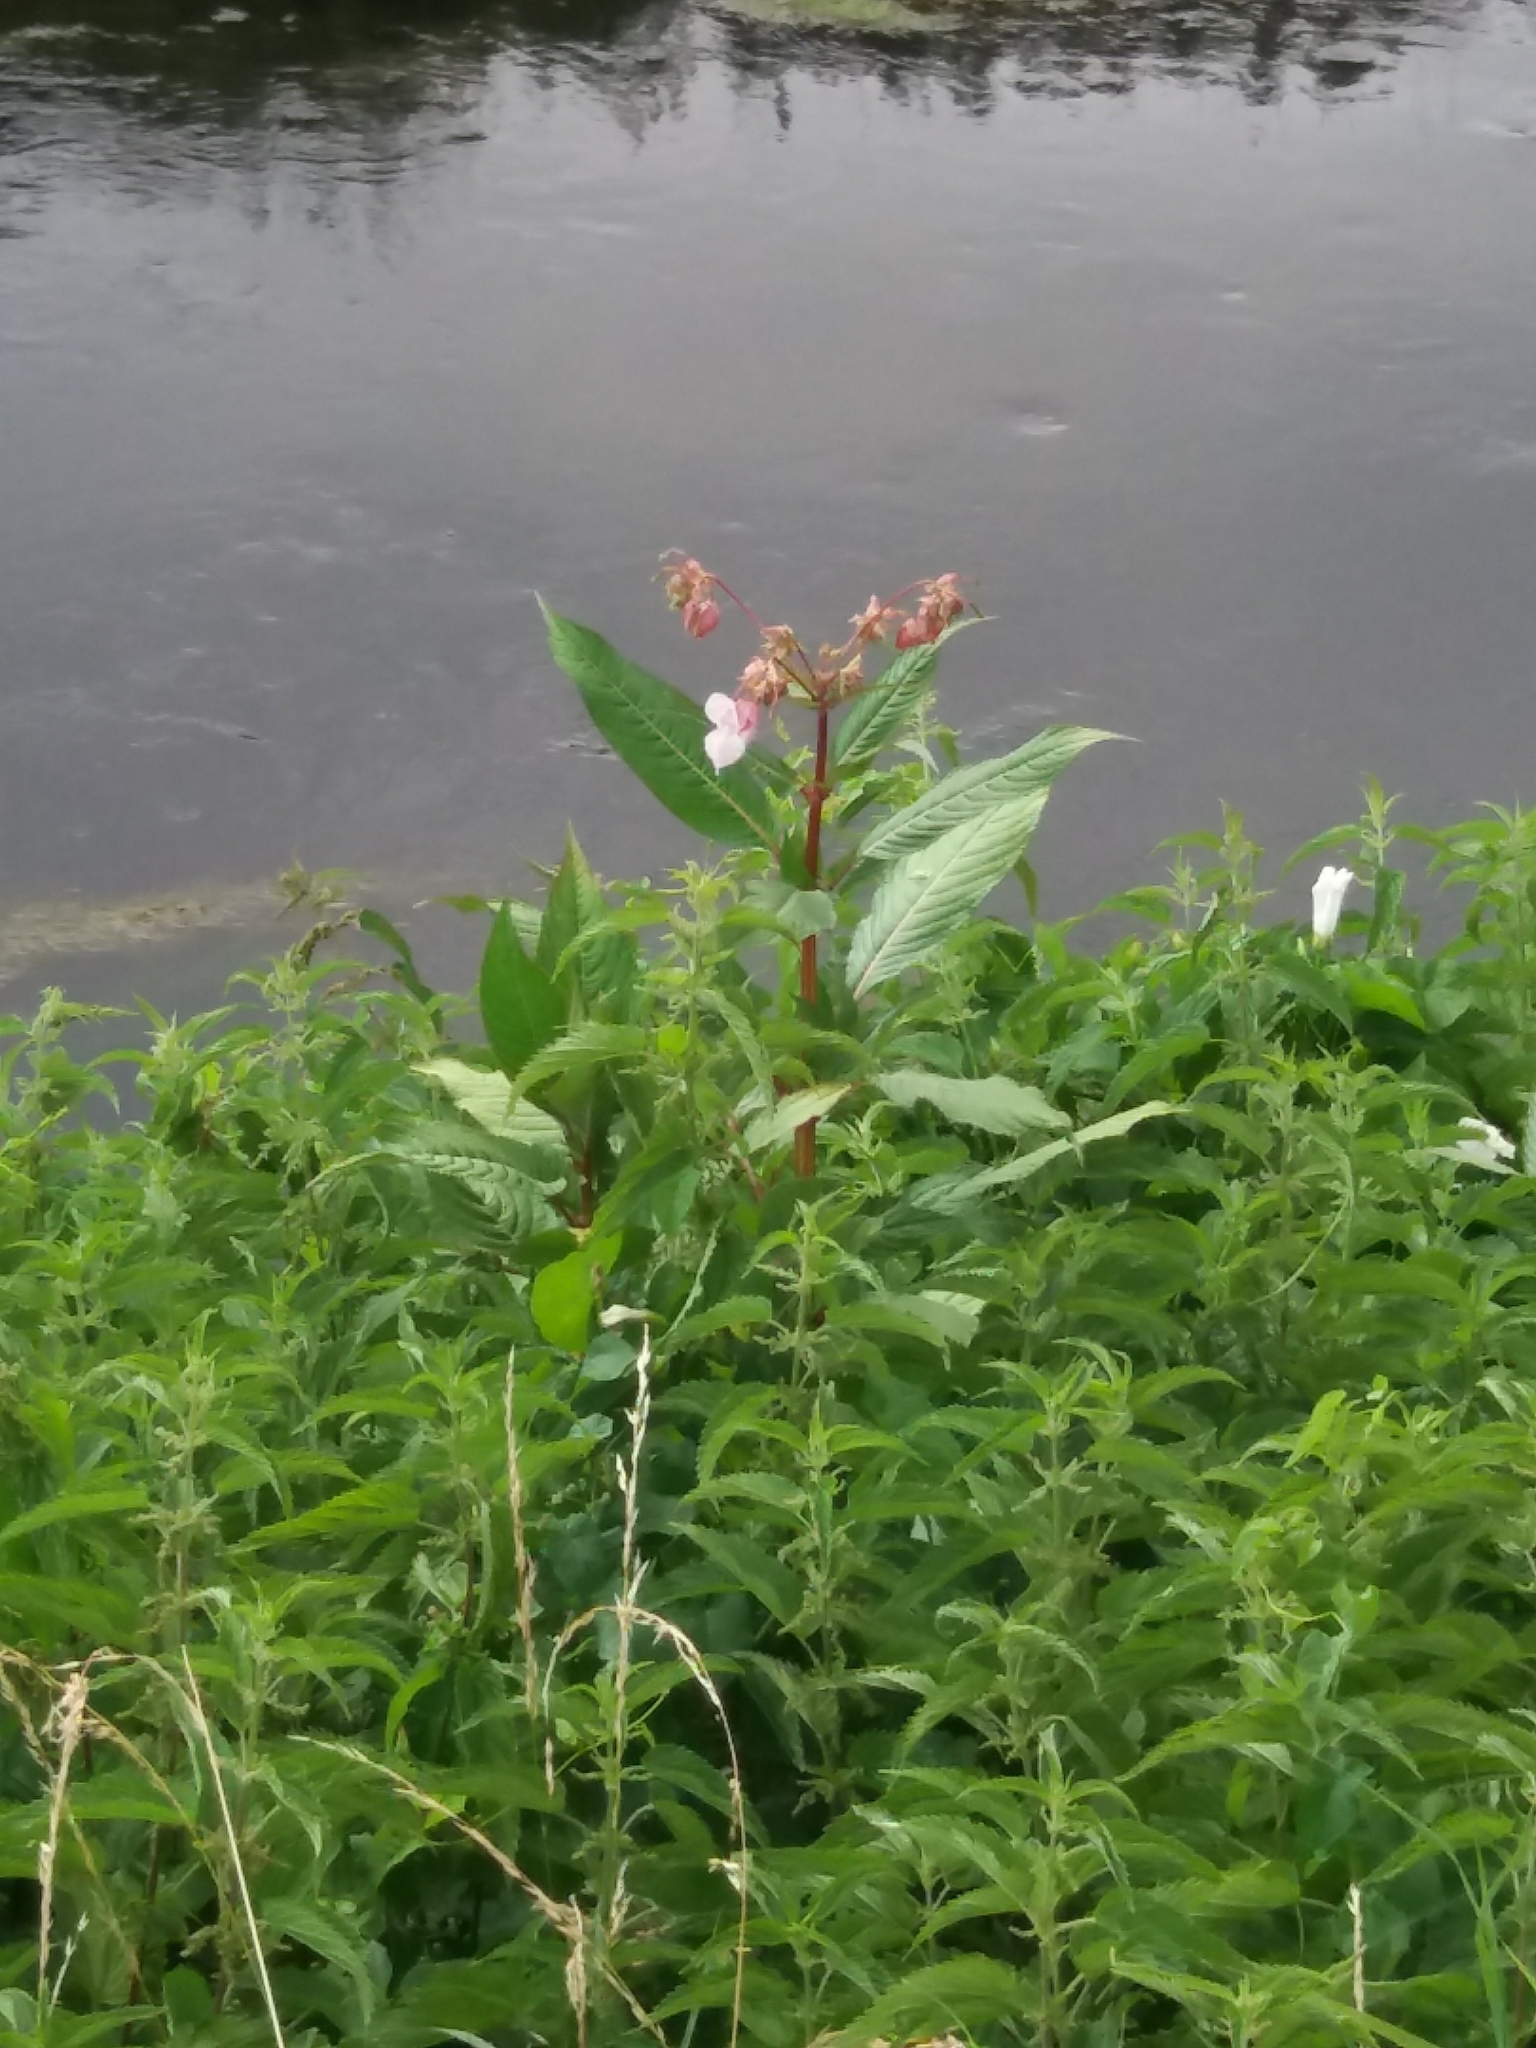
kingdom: Plantae
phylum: Tracheophyta
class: Magnoliopsida
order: Ericales
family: Balsaminaceae
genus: Impatiens
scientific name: Impatiens glandulifera
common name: Himalayan balsam
